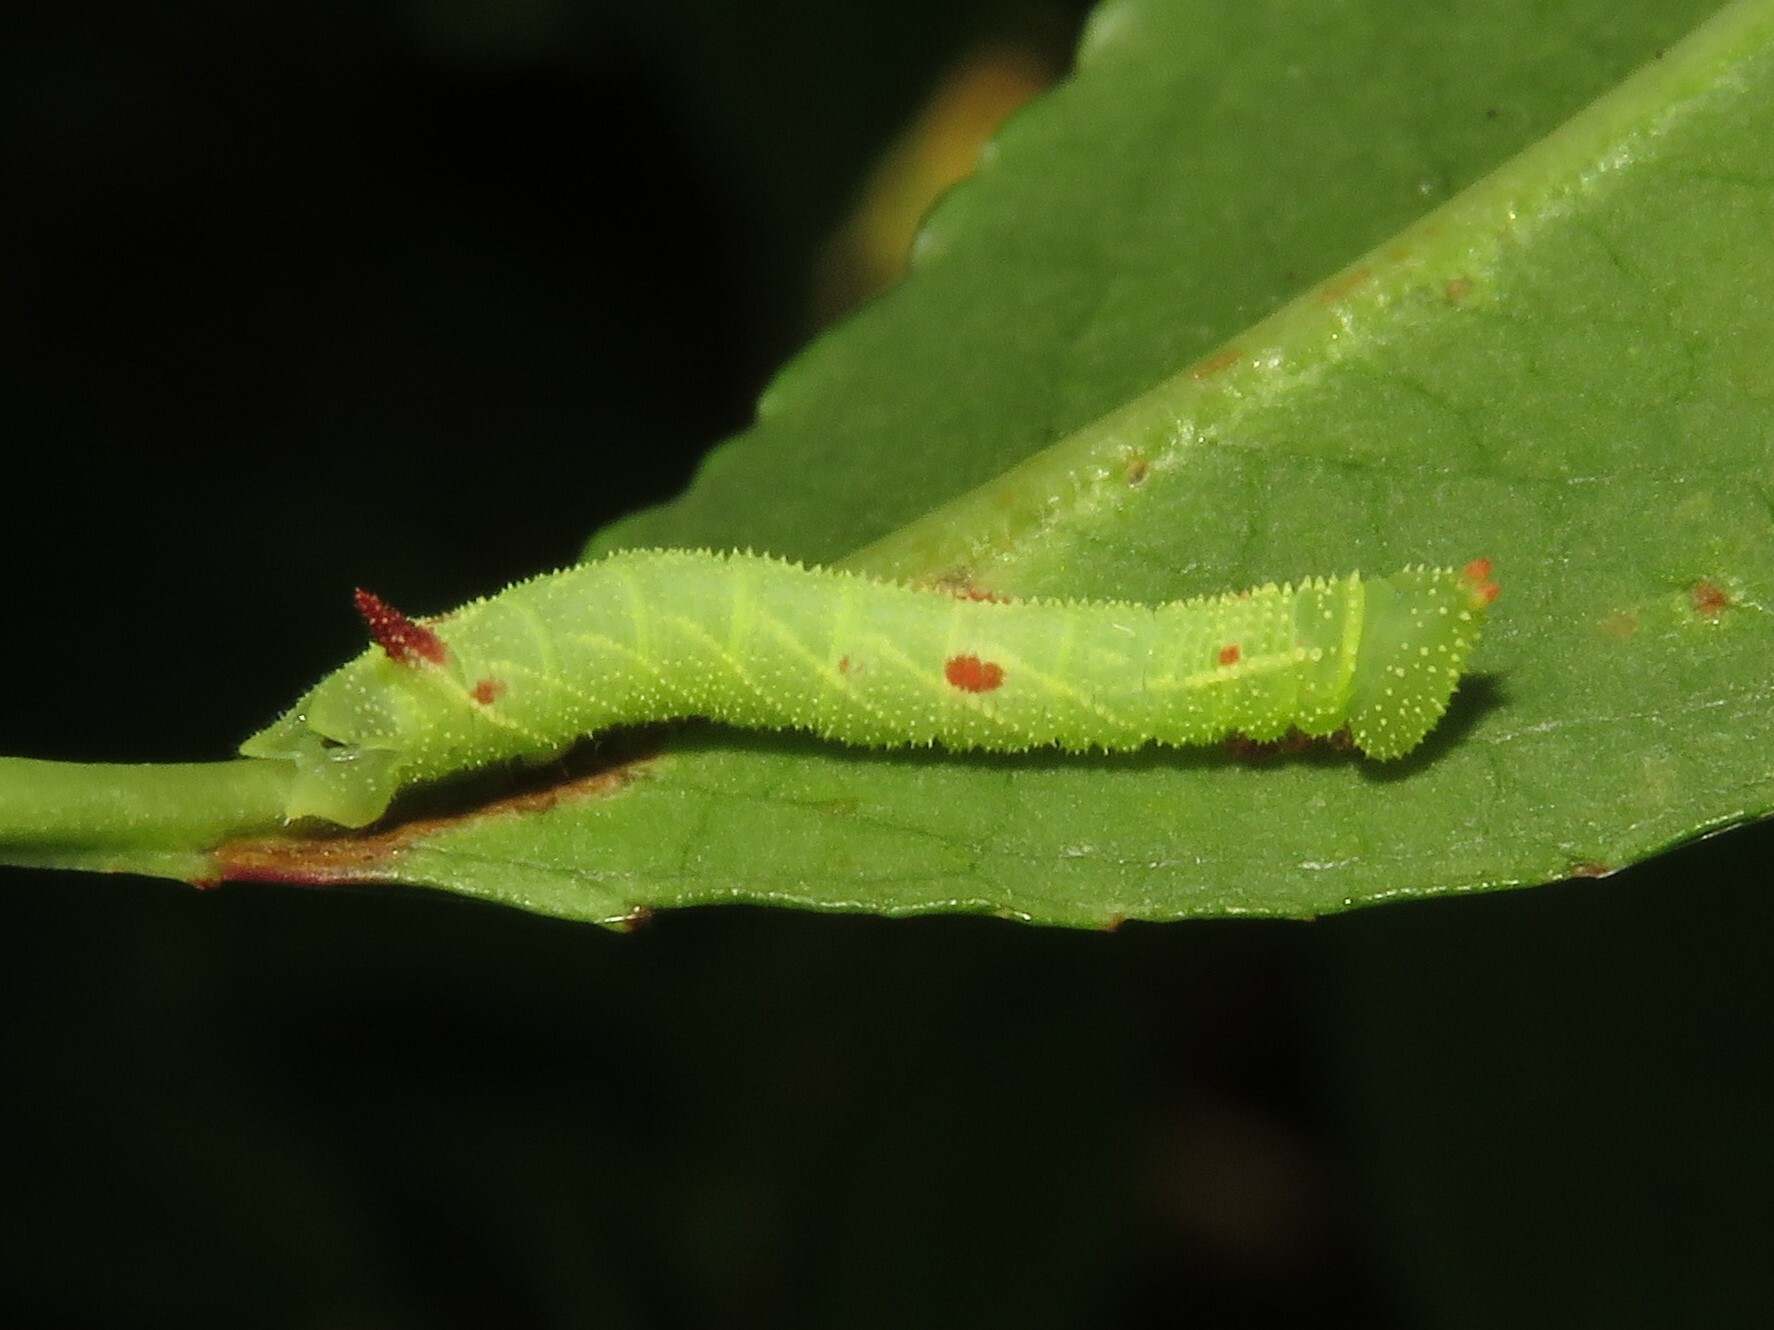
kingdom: Animalia
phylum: Arthropoda
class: Insecta
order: Lepidoptera
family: Sphingidae
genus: Paonias
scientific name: Paonias myops
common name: Small-eyed sphinx
